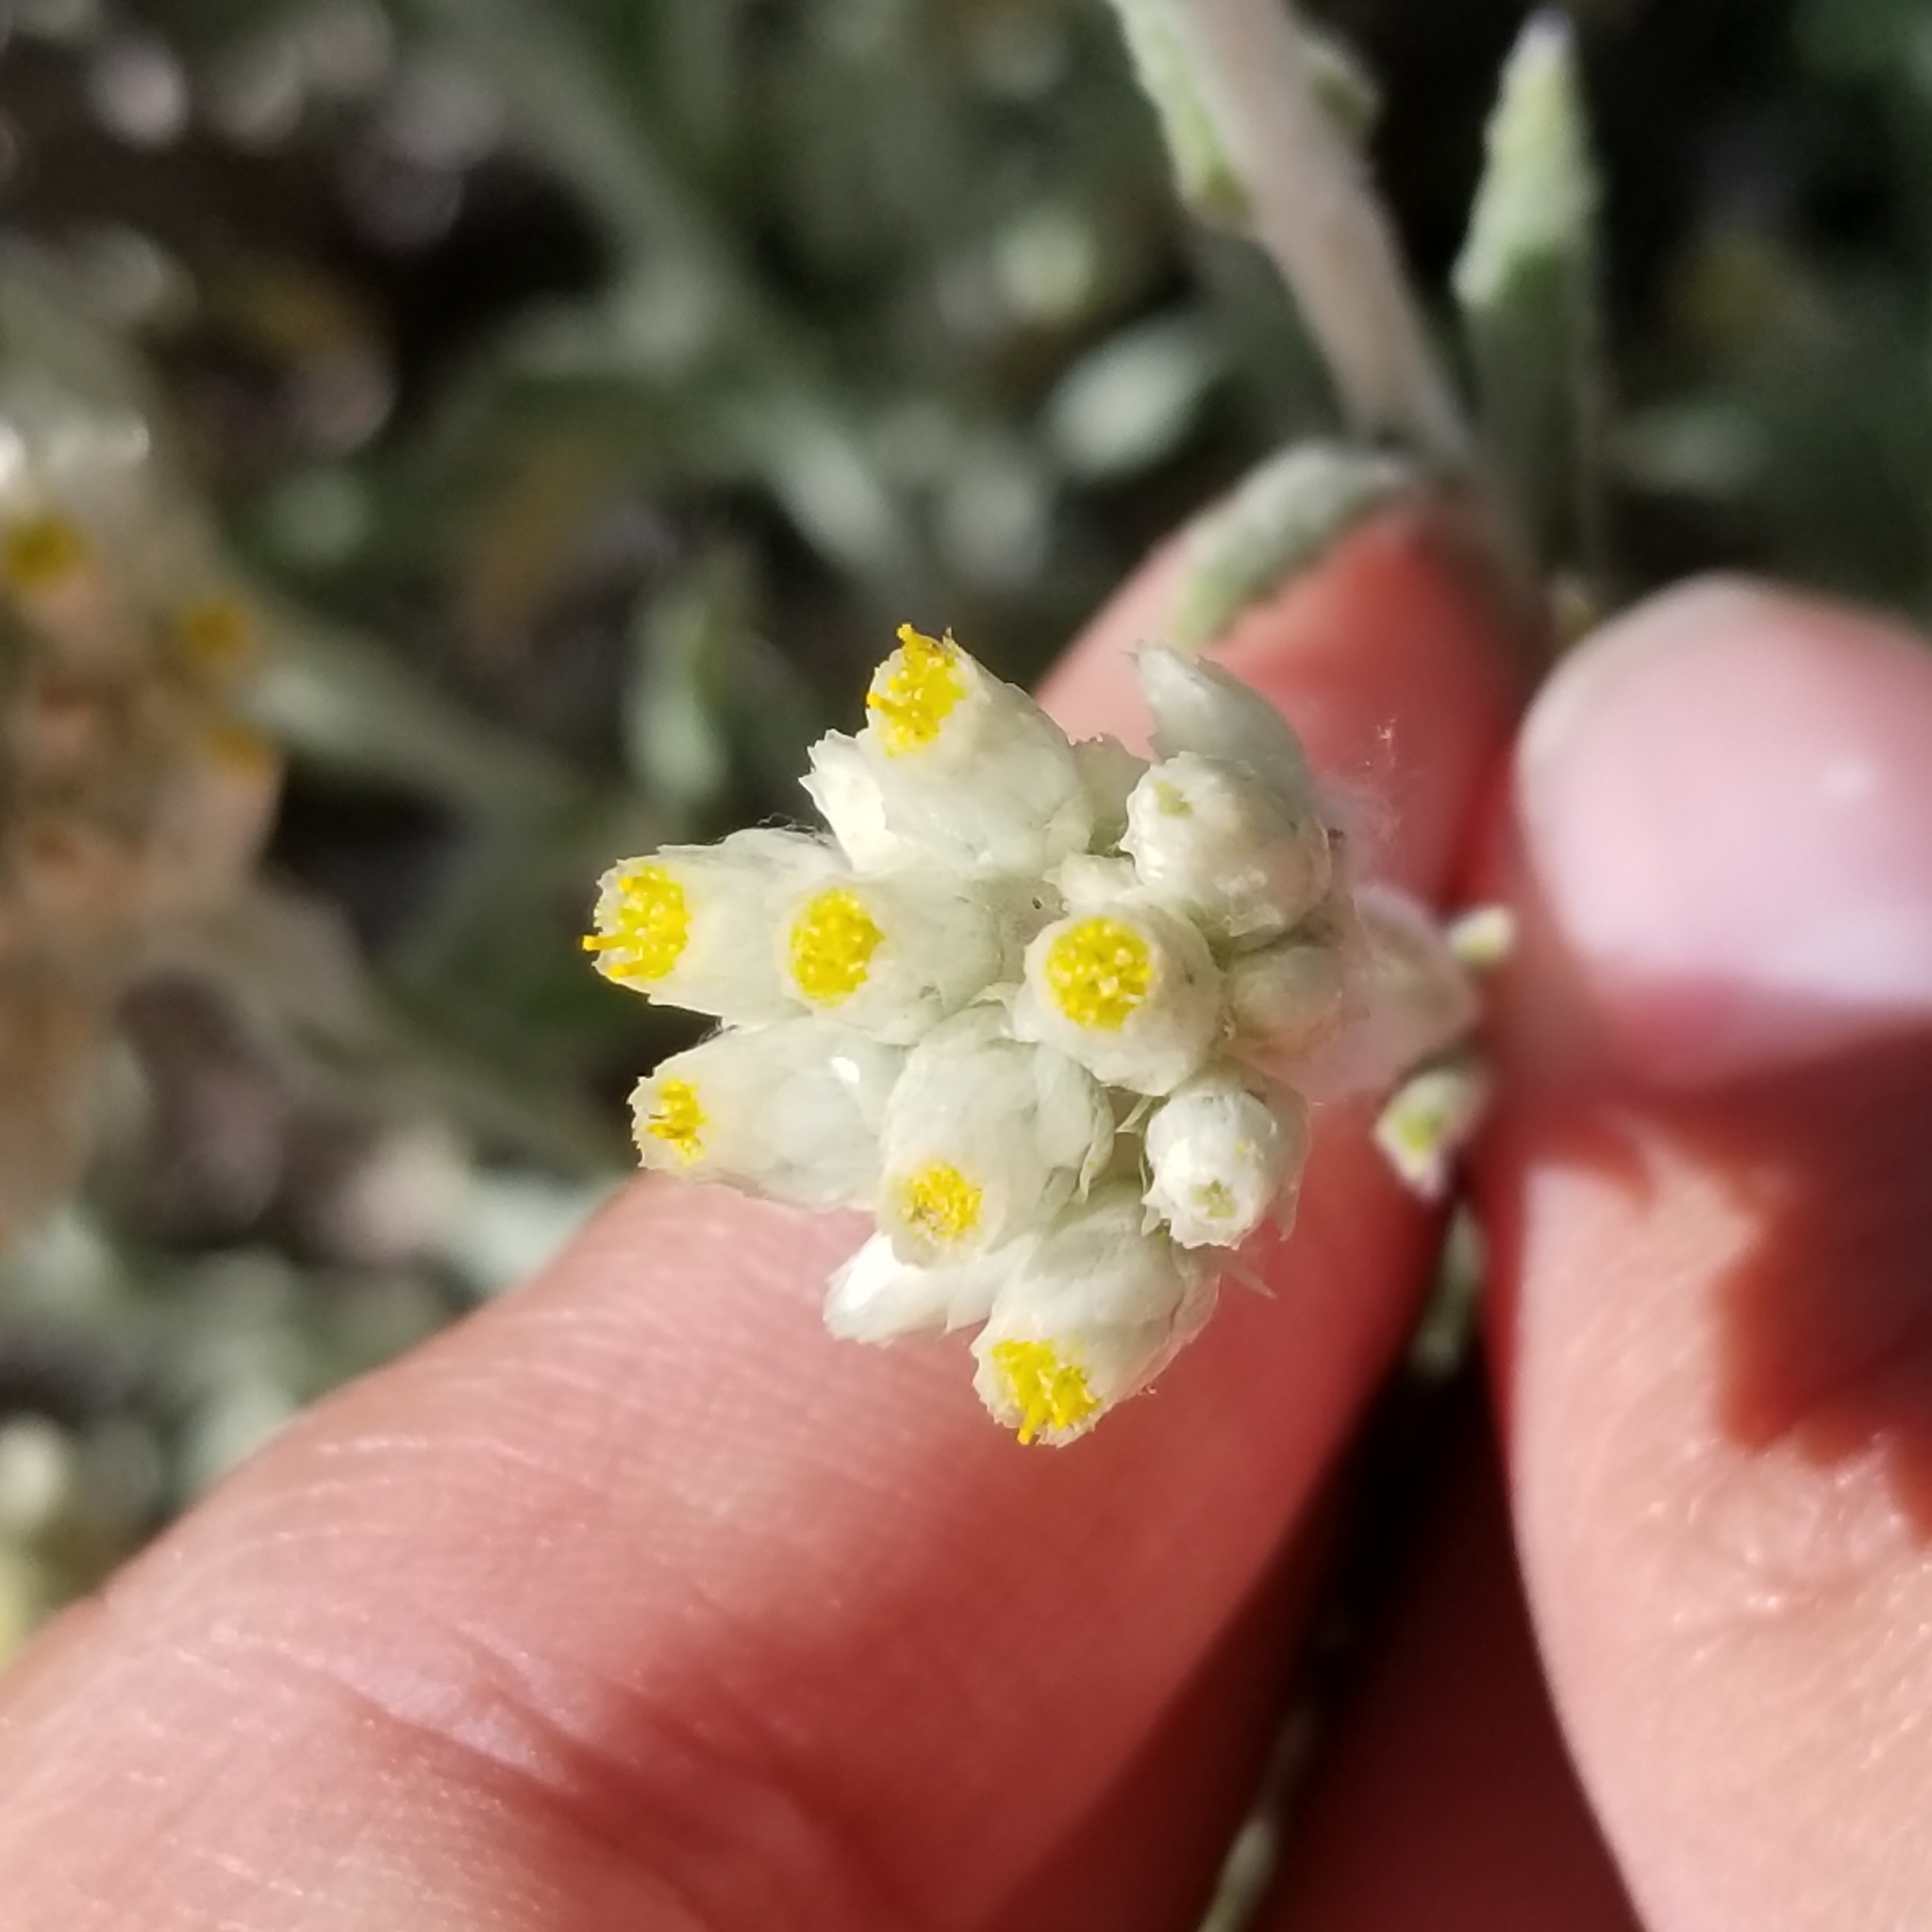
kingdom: Plantae
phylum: Tracheophyta
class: Magnoliopsida
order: Asterales
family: Asteraceae
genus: Pseudognaphalium
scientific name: Pseudognaphalium biolettii
